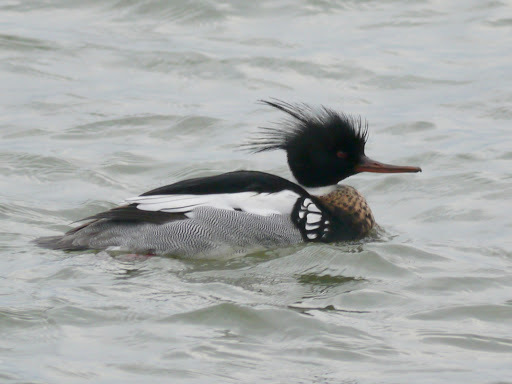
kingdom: Animalia
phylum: Chordata
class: Aves
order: Anseriformes
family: Anatidae
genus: Mergus
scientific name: Mergus serrator
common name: Red-breasted merganser
